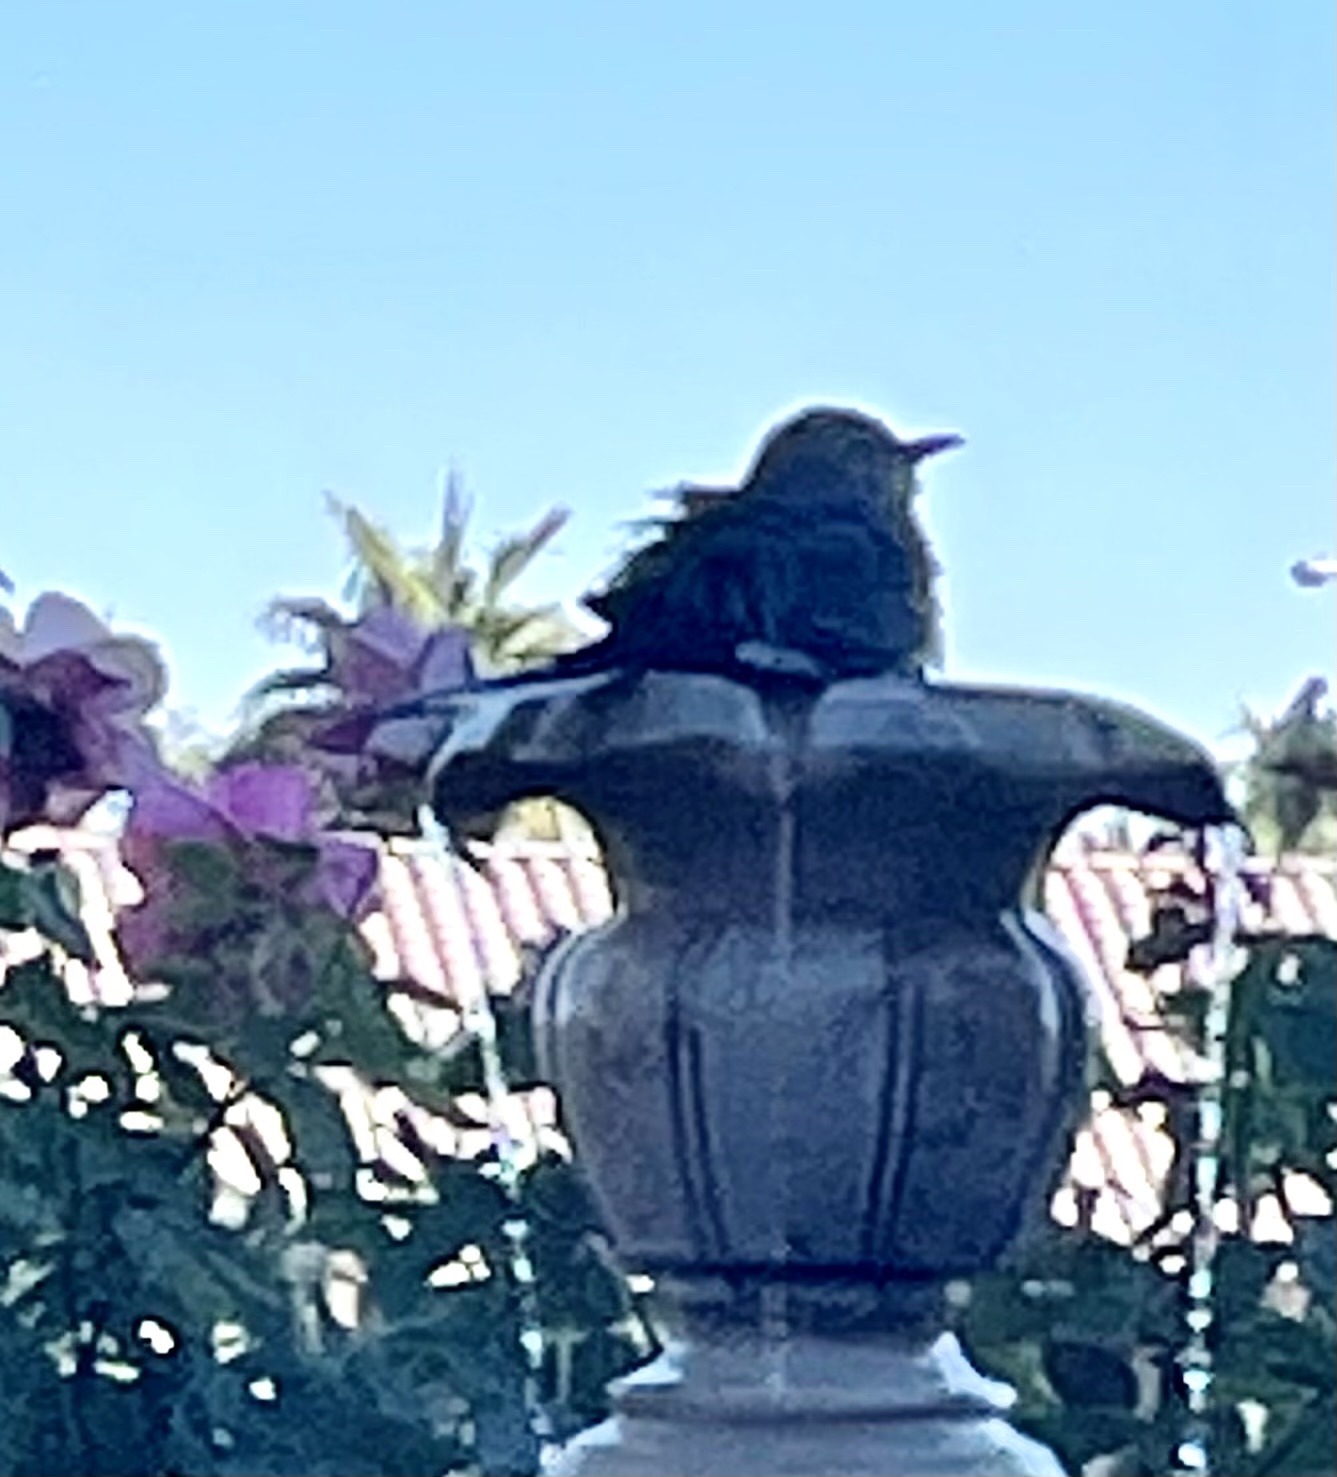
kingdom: Animalia
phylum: Chordata
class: Aves
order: Passeriformes
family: Mimidae
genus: Mimus
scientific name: Mimus polyglottos
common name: Northern mockingbird
